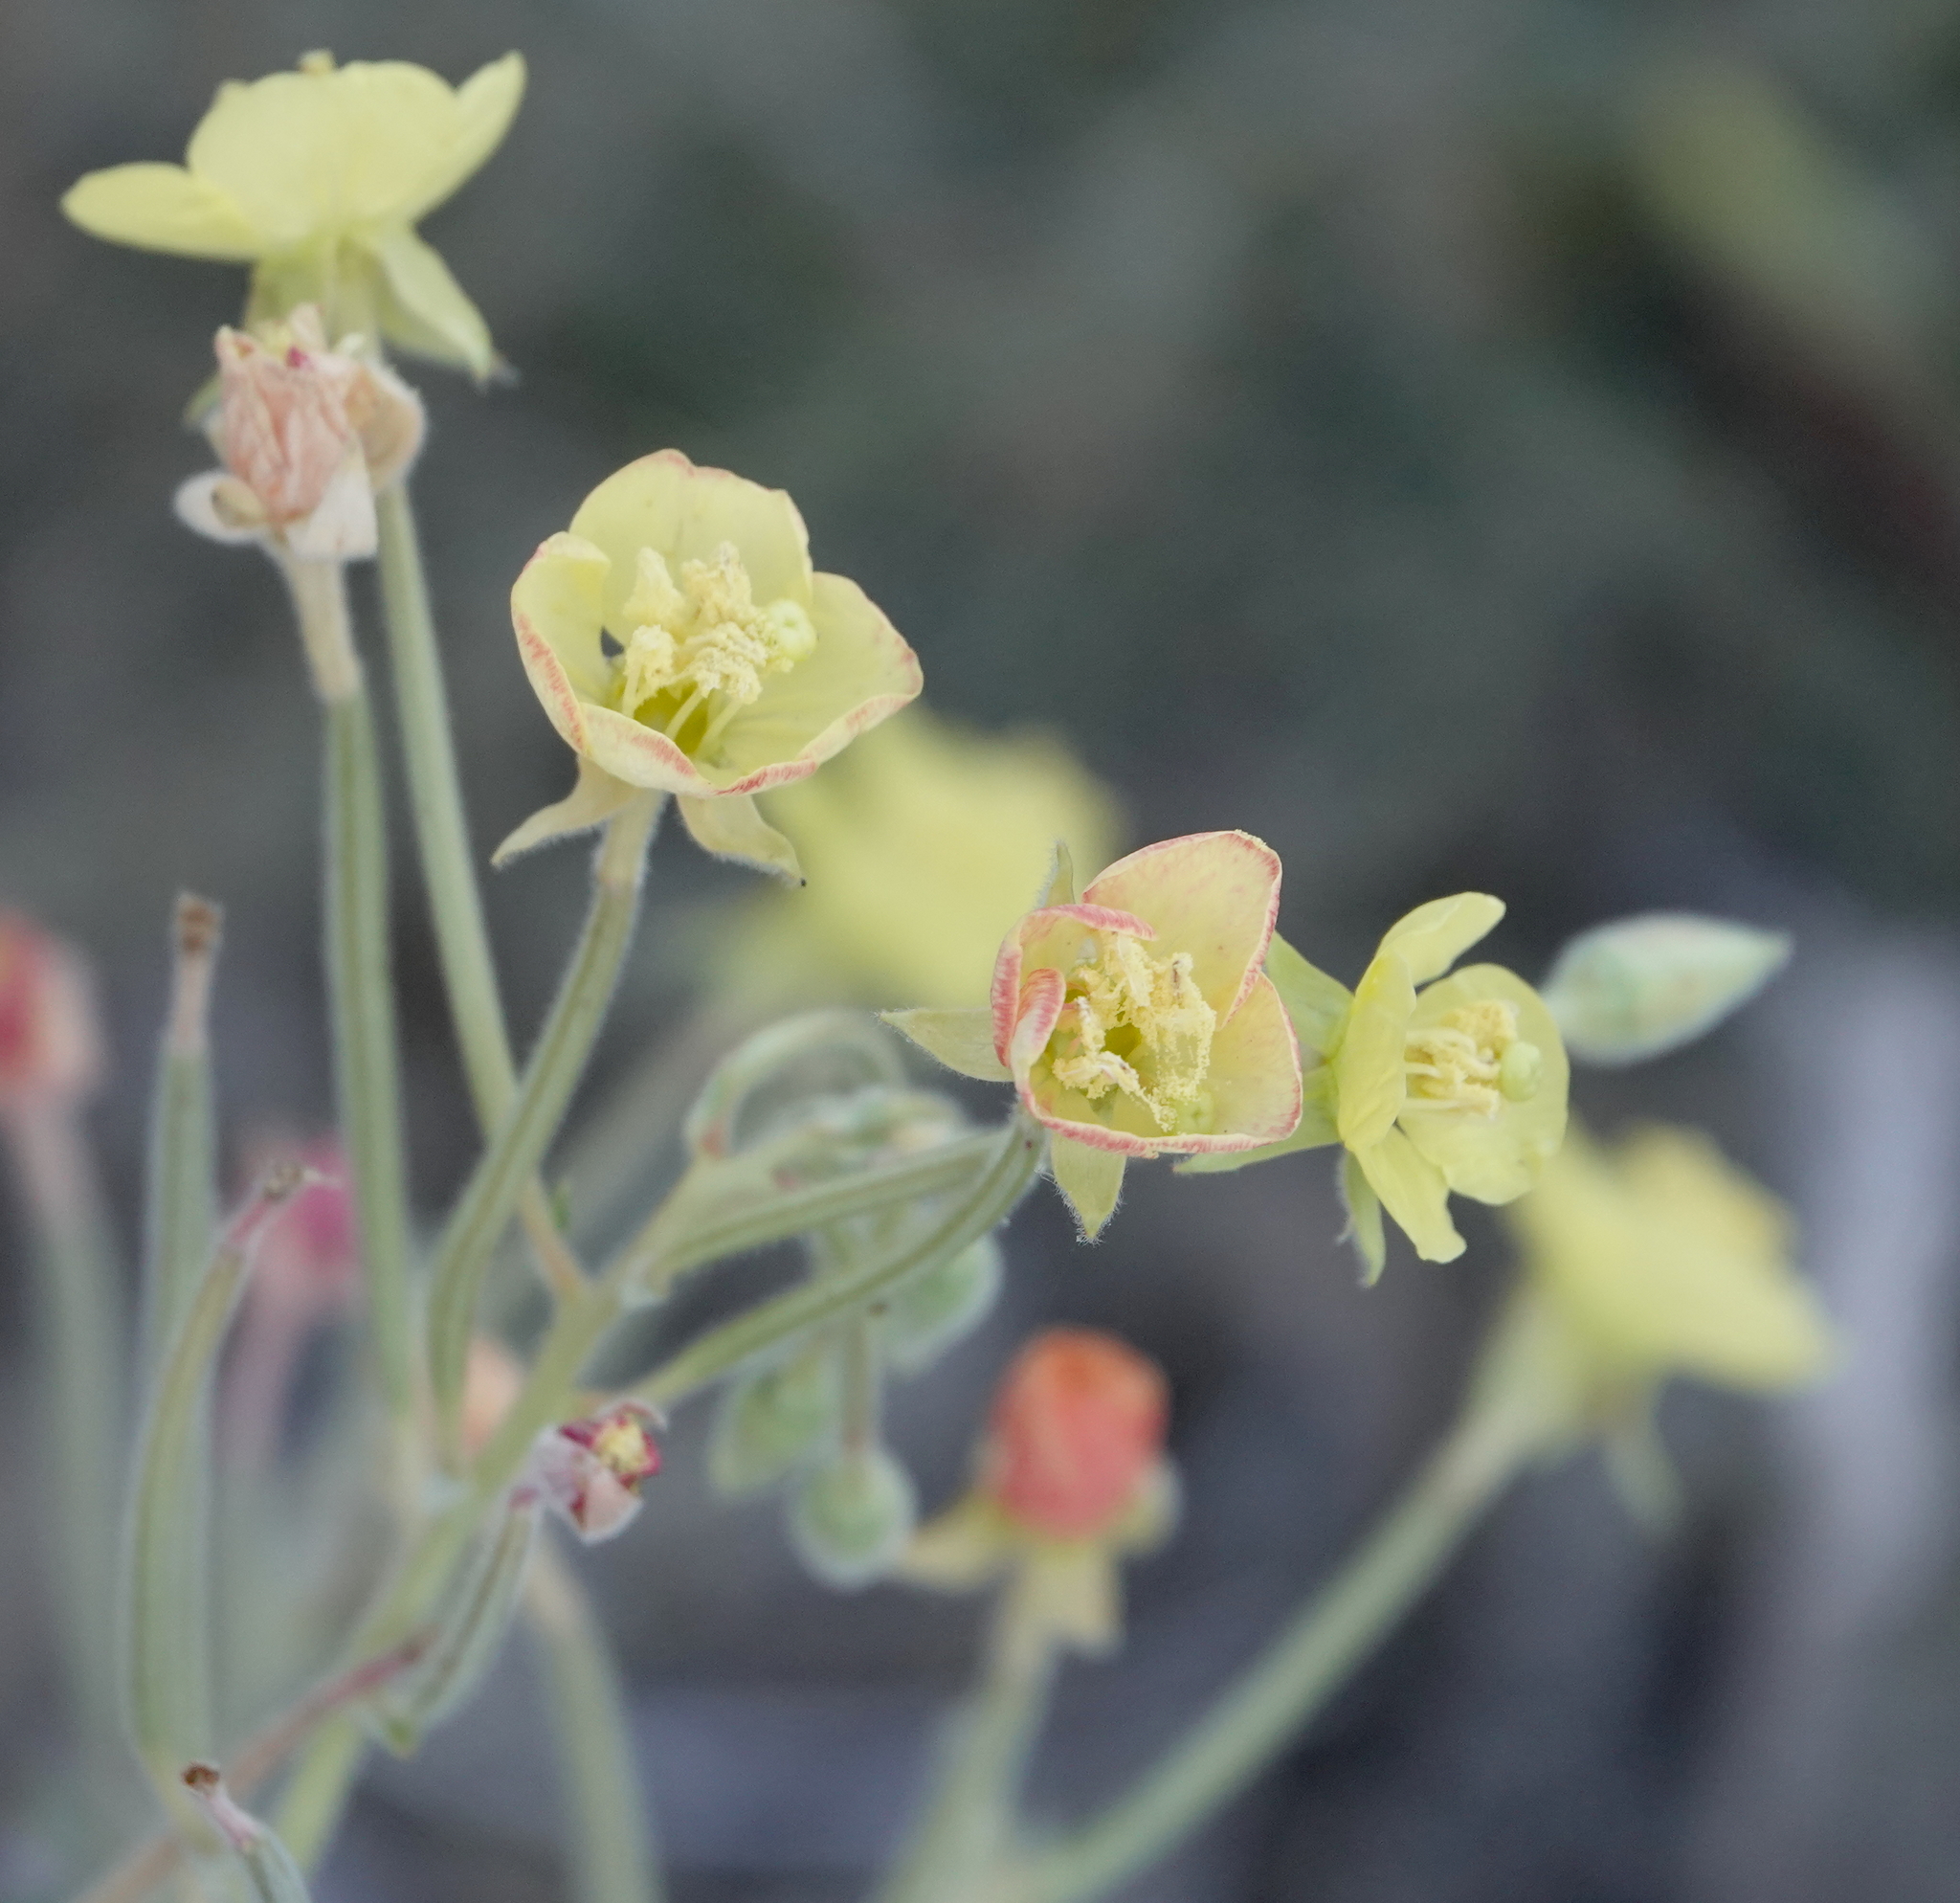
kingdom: Plantae
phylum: Tracheophyta
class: Magnoliopsida
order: Myrtales
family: Onagraceae
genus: Chylismia
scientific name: Chylismia cardiophylla
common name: Heartleaf suncup
